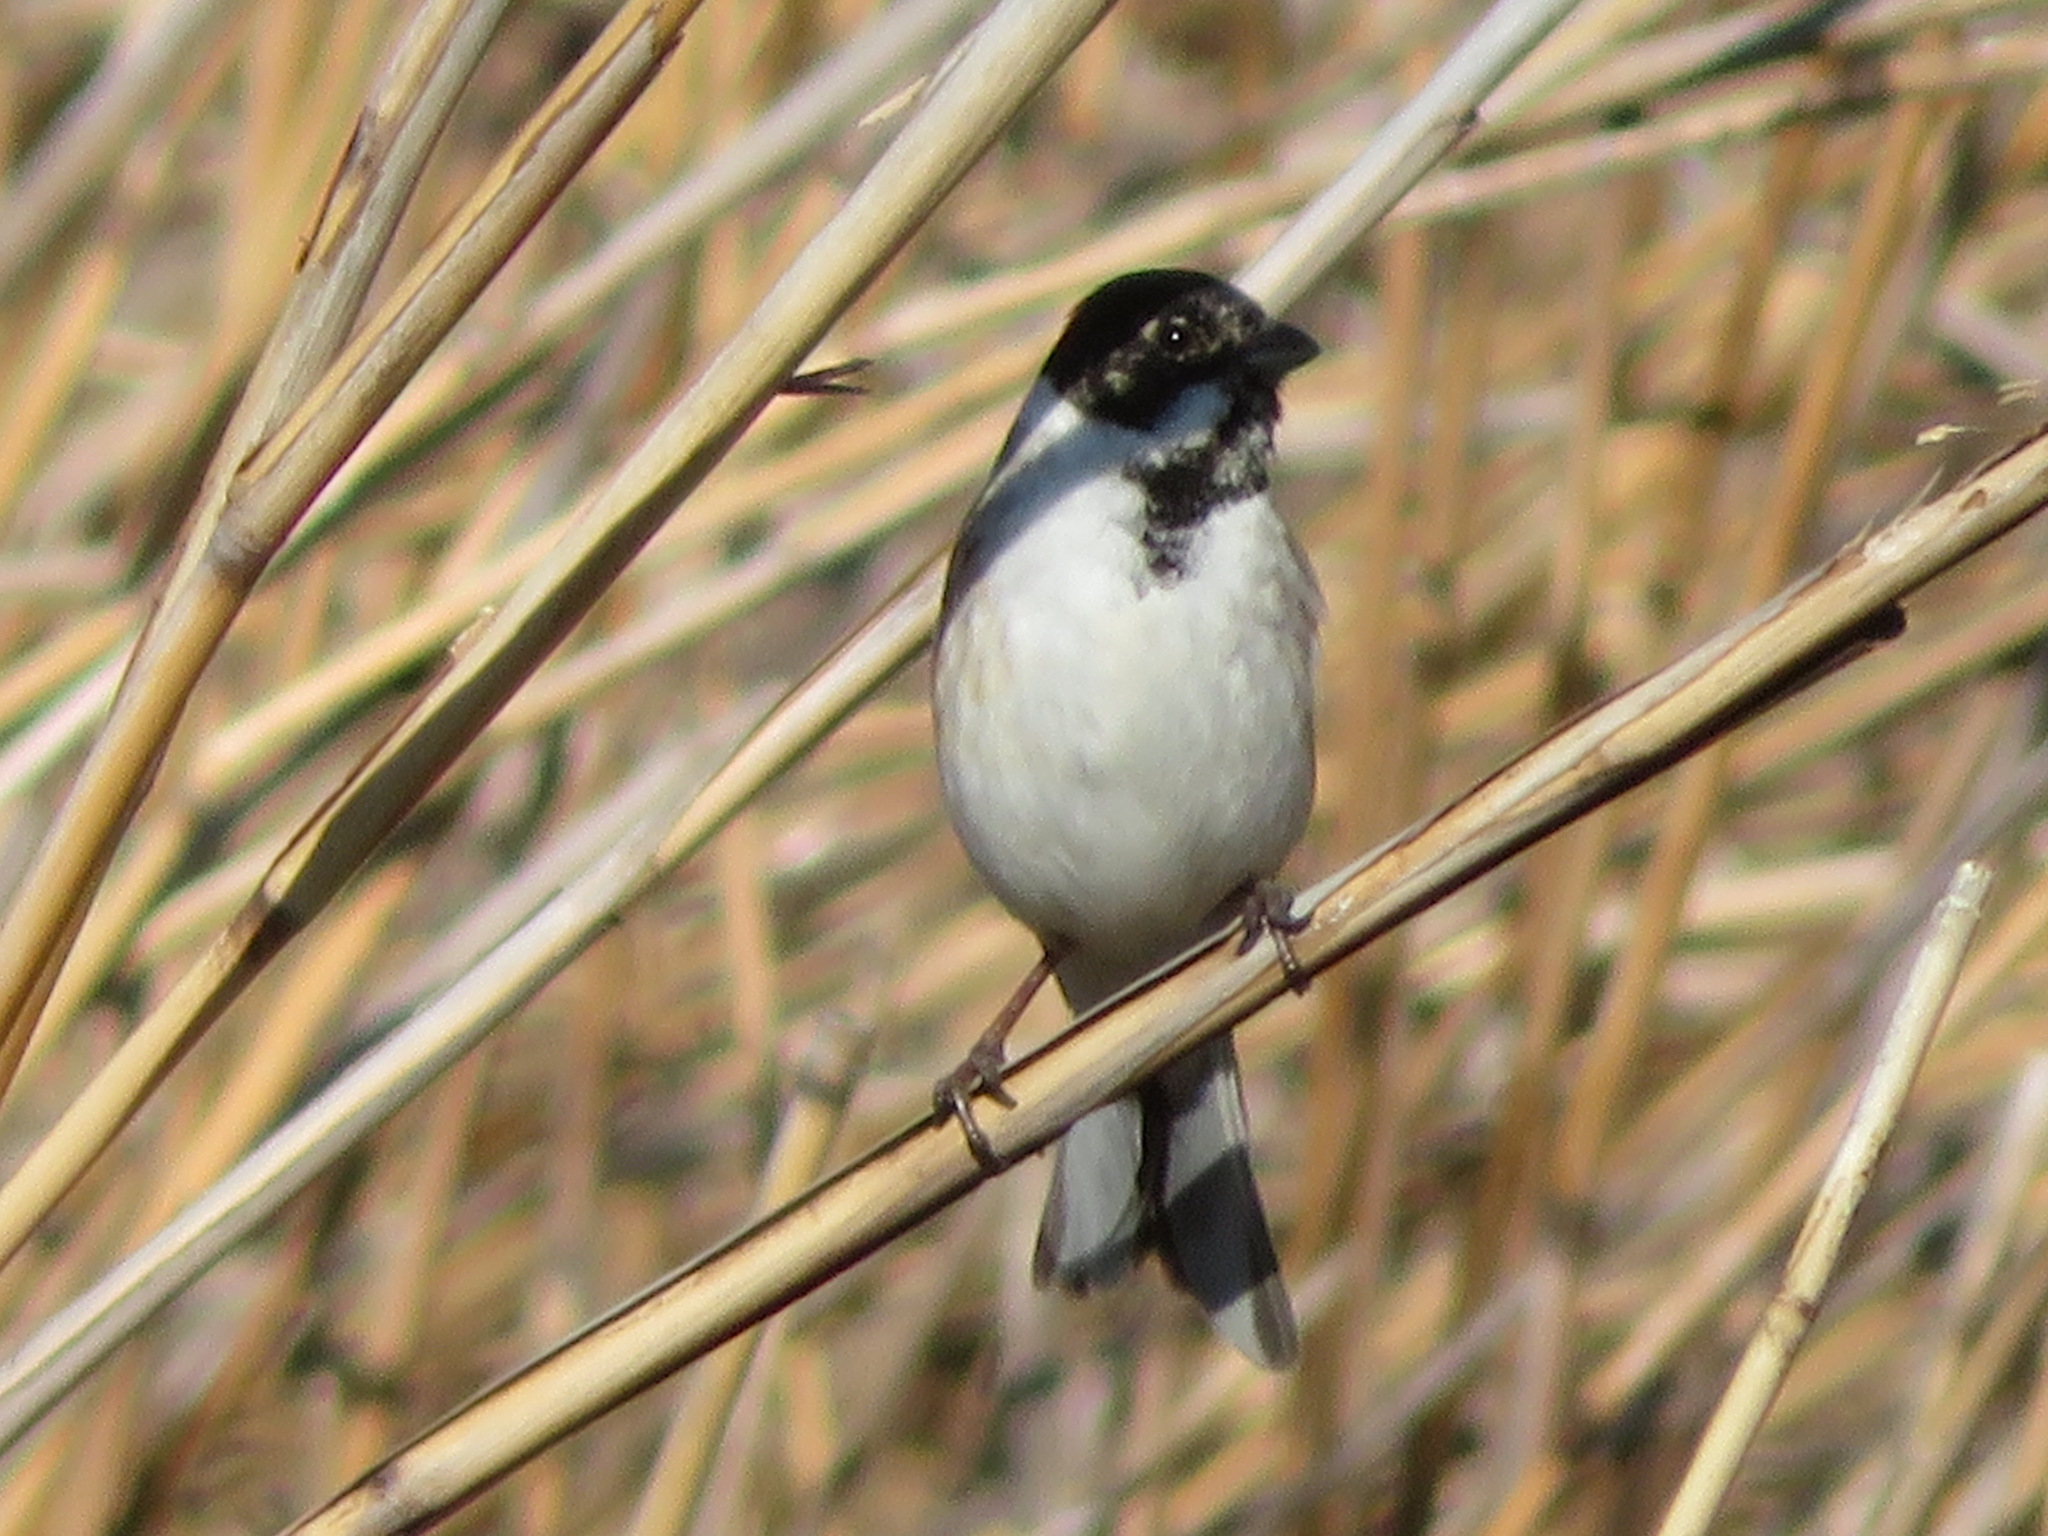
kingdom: Animalia
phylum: Chordata
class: Aves
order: Passeriformes
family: Emberizidae
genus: Emberiza
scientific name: Emberiza schoeniclus
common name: Reed bunting
